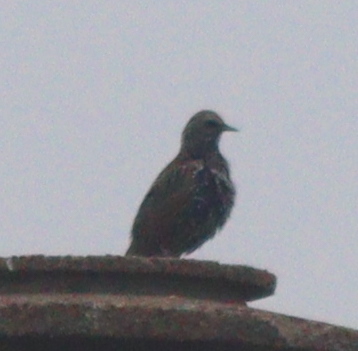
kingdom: Animalia
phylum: Chordata
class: Aves
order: Passeriformes
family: Sturnidae
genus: Sturnus
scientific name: Sturnus vulgaris
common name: Common starling
